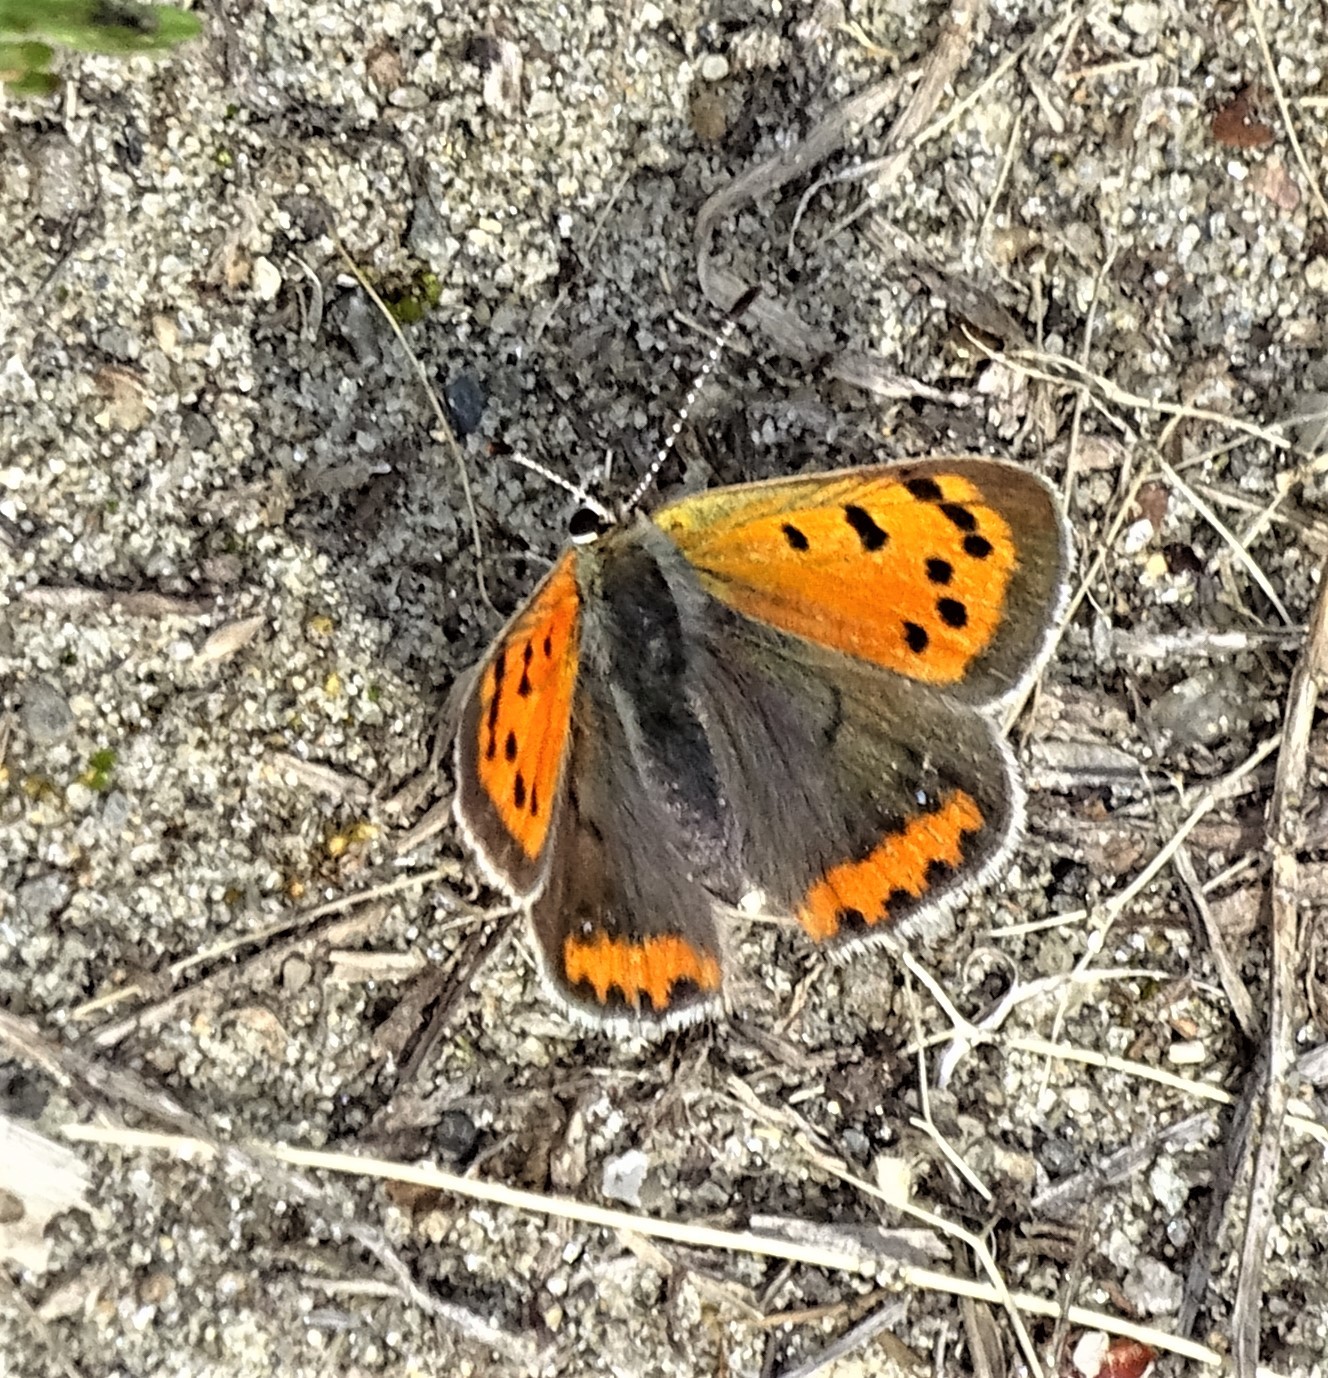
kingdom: Animalia
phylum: Arthropoda
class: Insecta
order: Lepidoptera
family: Lycaenidae
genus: Lycaena
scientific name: Lycaena hypophlaeas
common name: American copper
